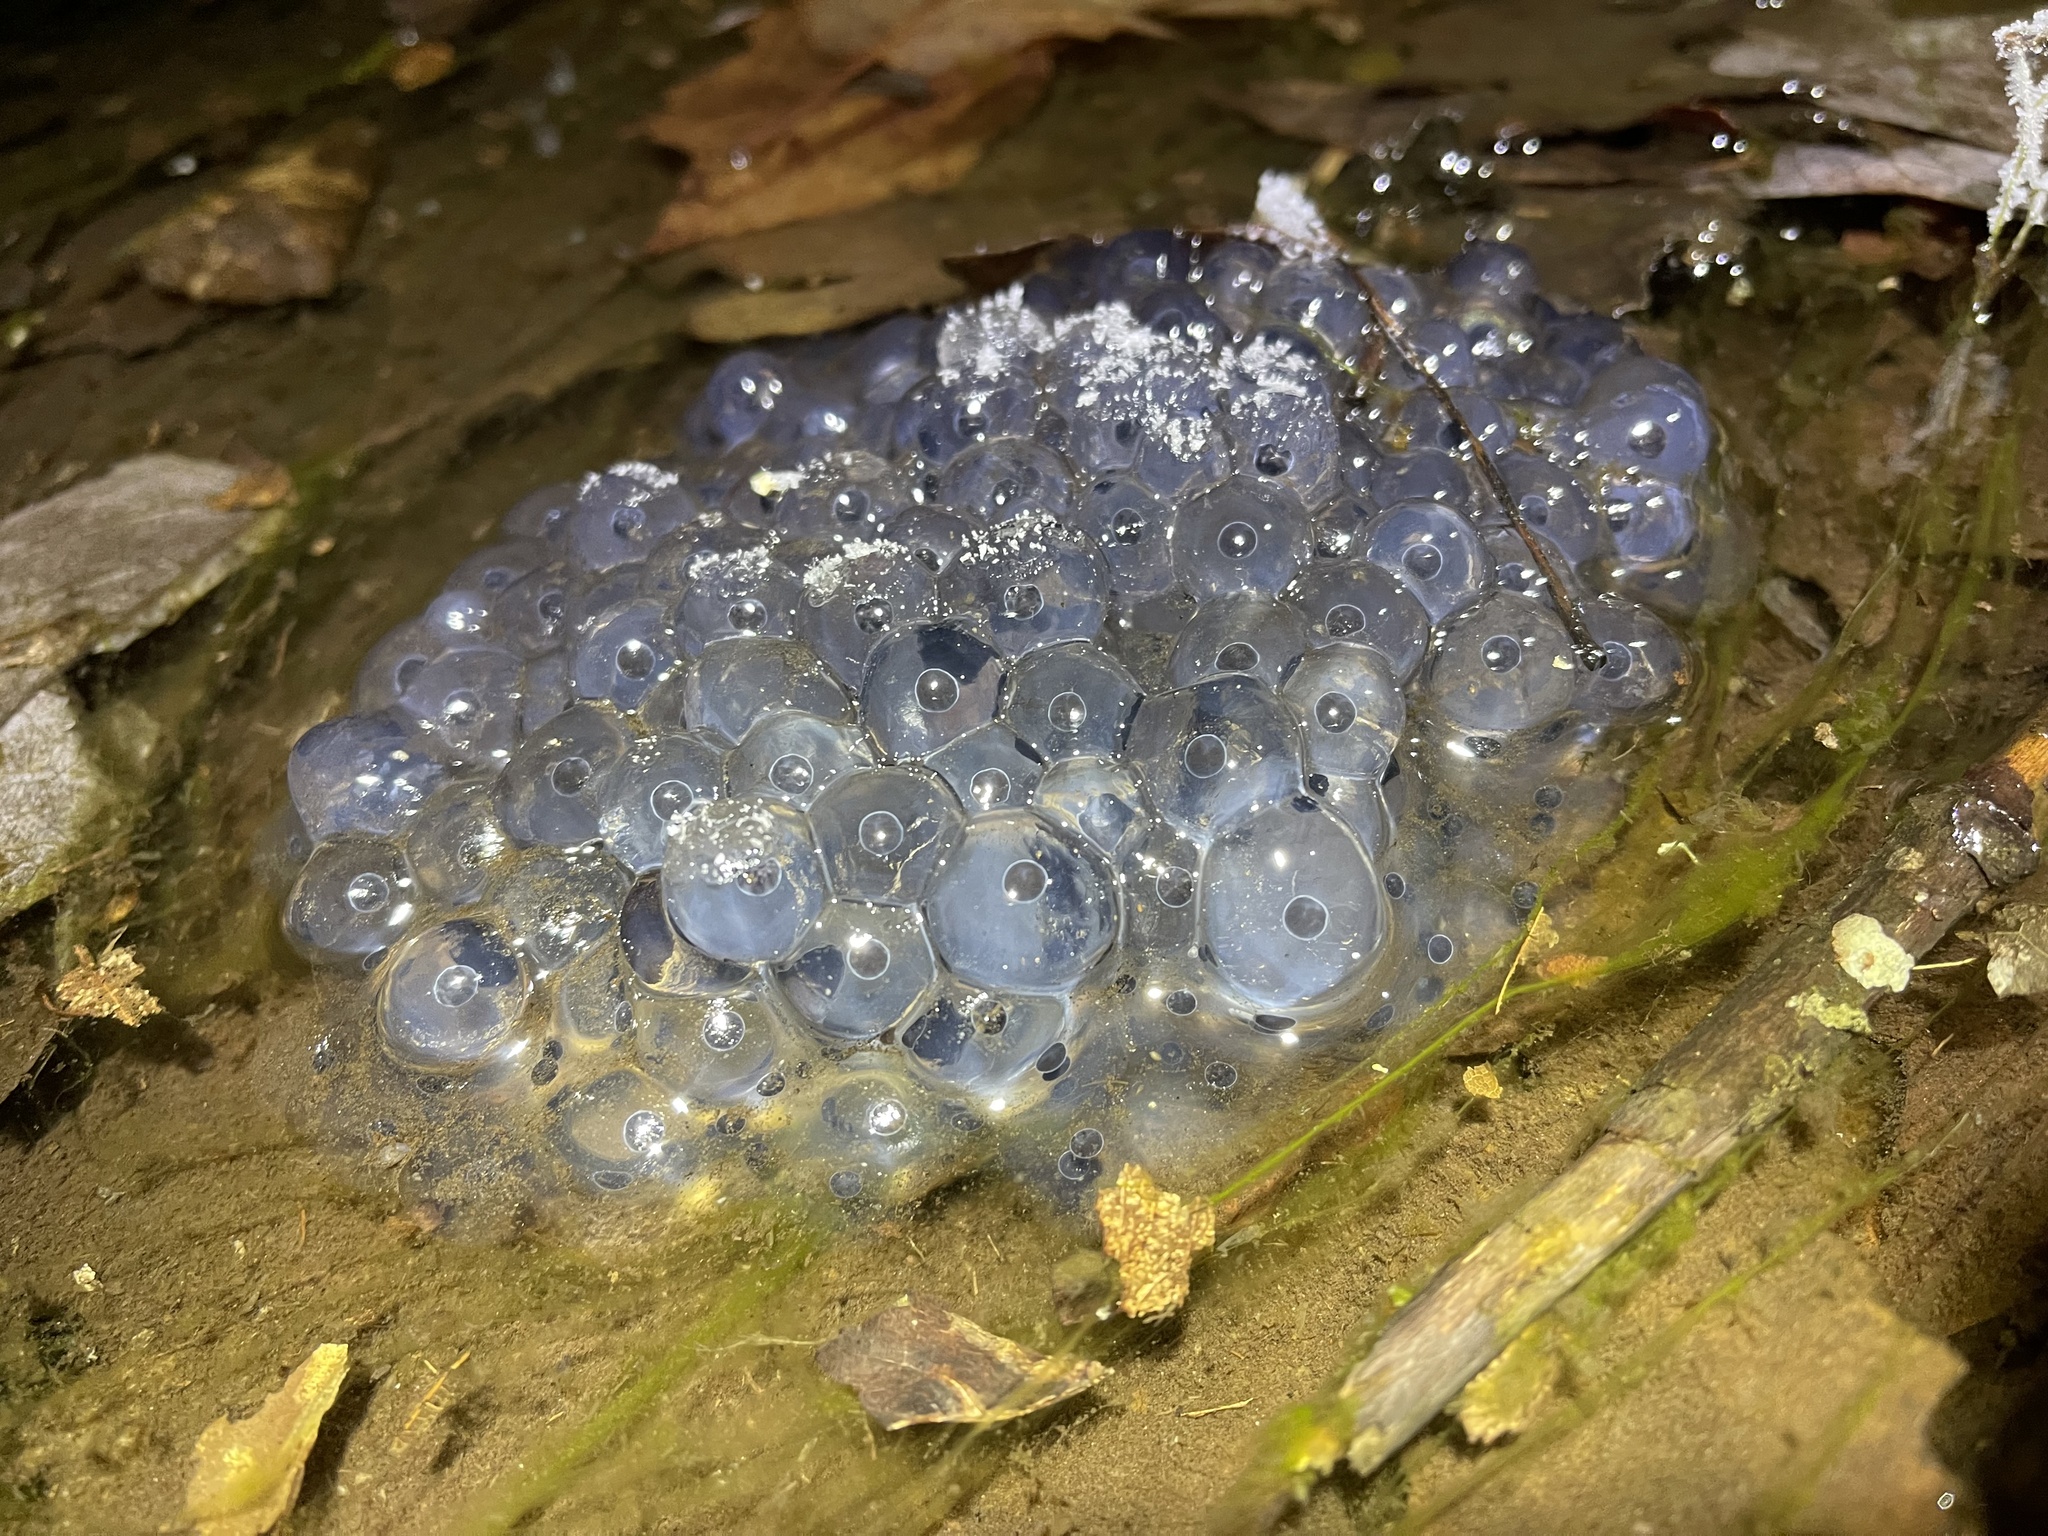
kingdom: Animalia
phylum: Chordata
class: Amphibia
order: Anura
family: Ranidae
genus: Lithobates
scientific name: Lithobates sylvaticus
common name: Wood frog
